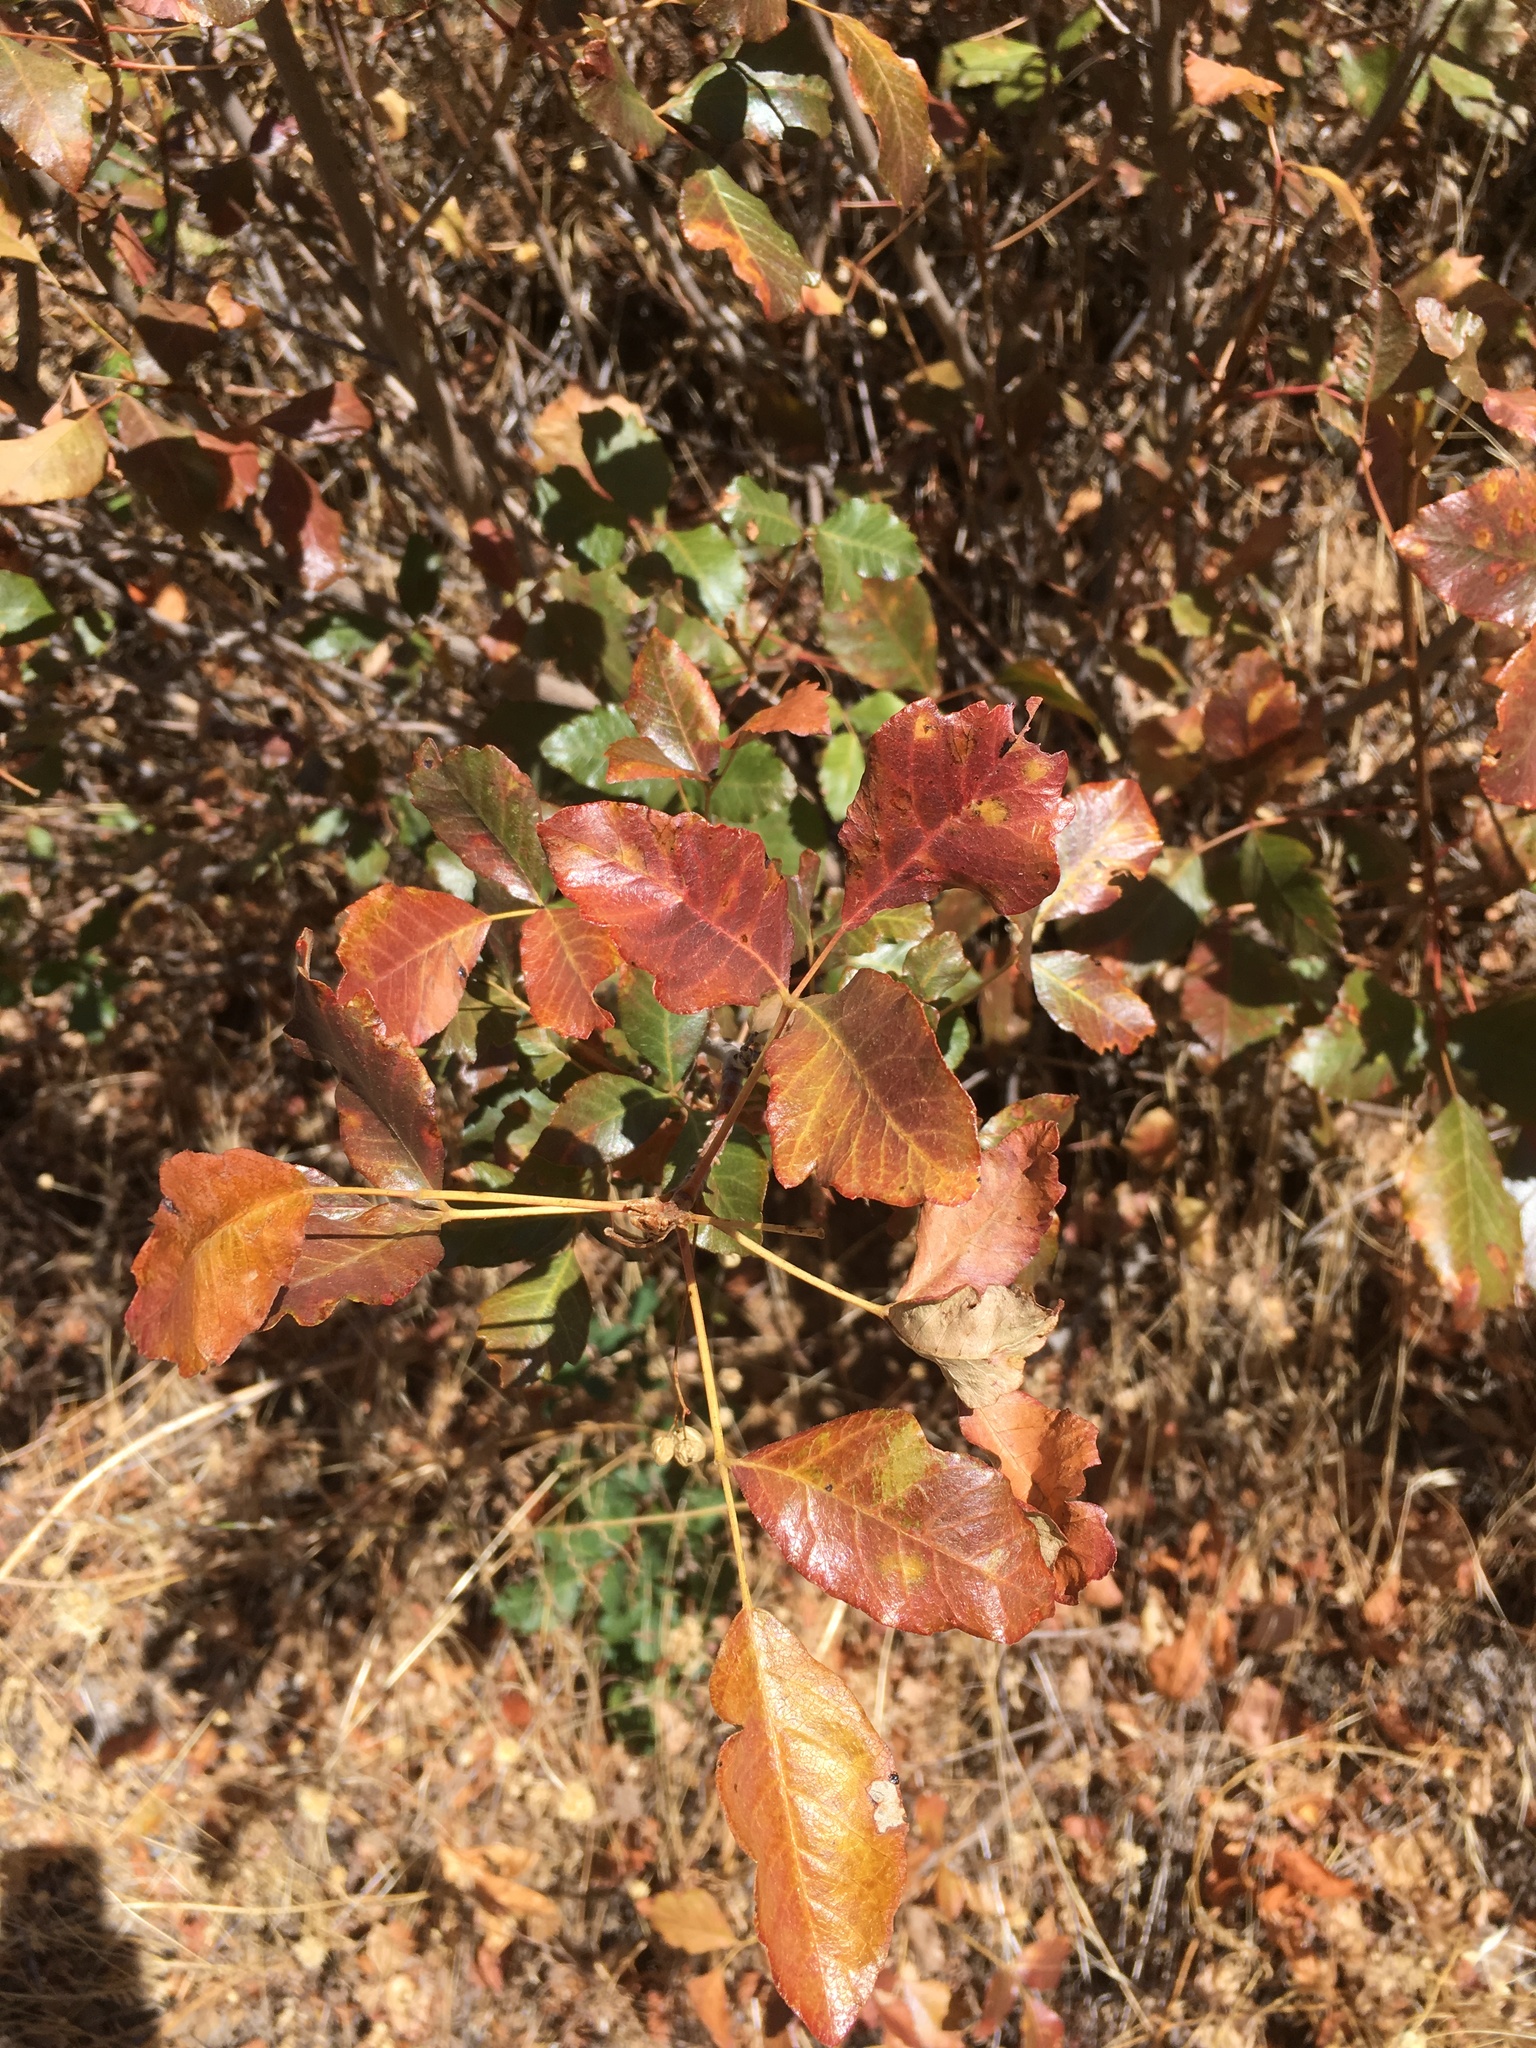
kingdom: Plantae
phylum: Tracheophyta
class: Magnoliopsida
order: Sapindales
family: Anacardiaceae
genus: Toxicodendron
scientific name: Toxicodendron diversilobum
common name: Pacific poison-oak
